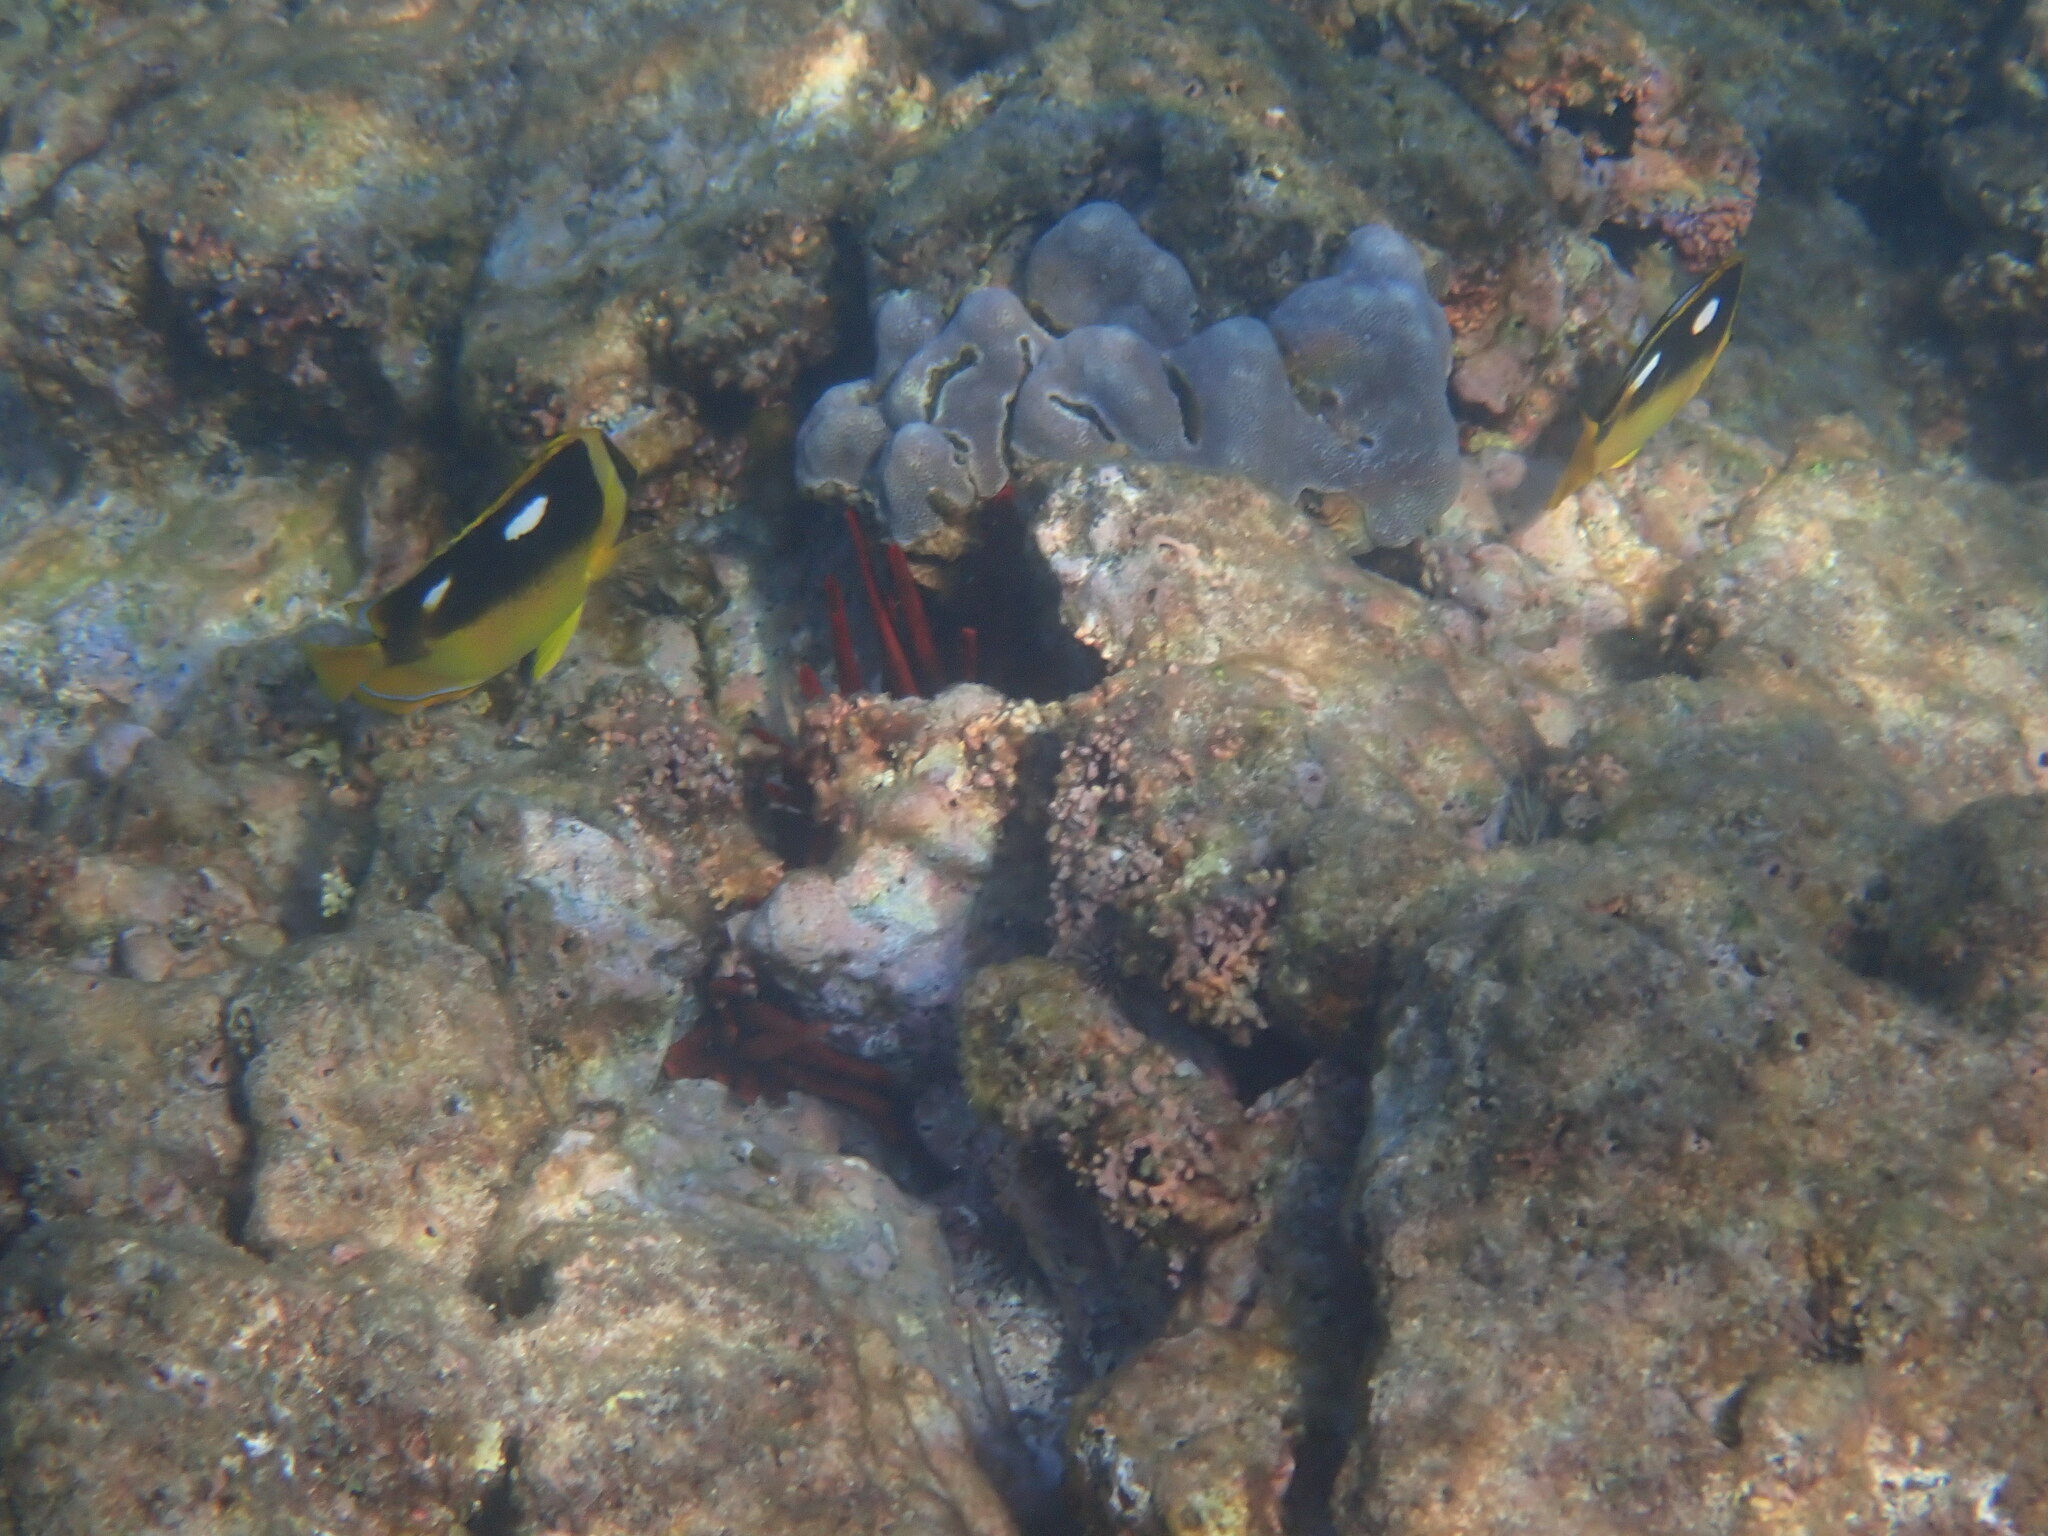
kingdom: Animalia
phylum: Chordata
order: Perciformes
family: Chaetodontidae
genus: Chaetodon
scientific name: Chaetodon quadrimaculatus
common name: Fourspot butterflyfish
